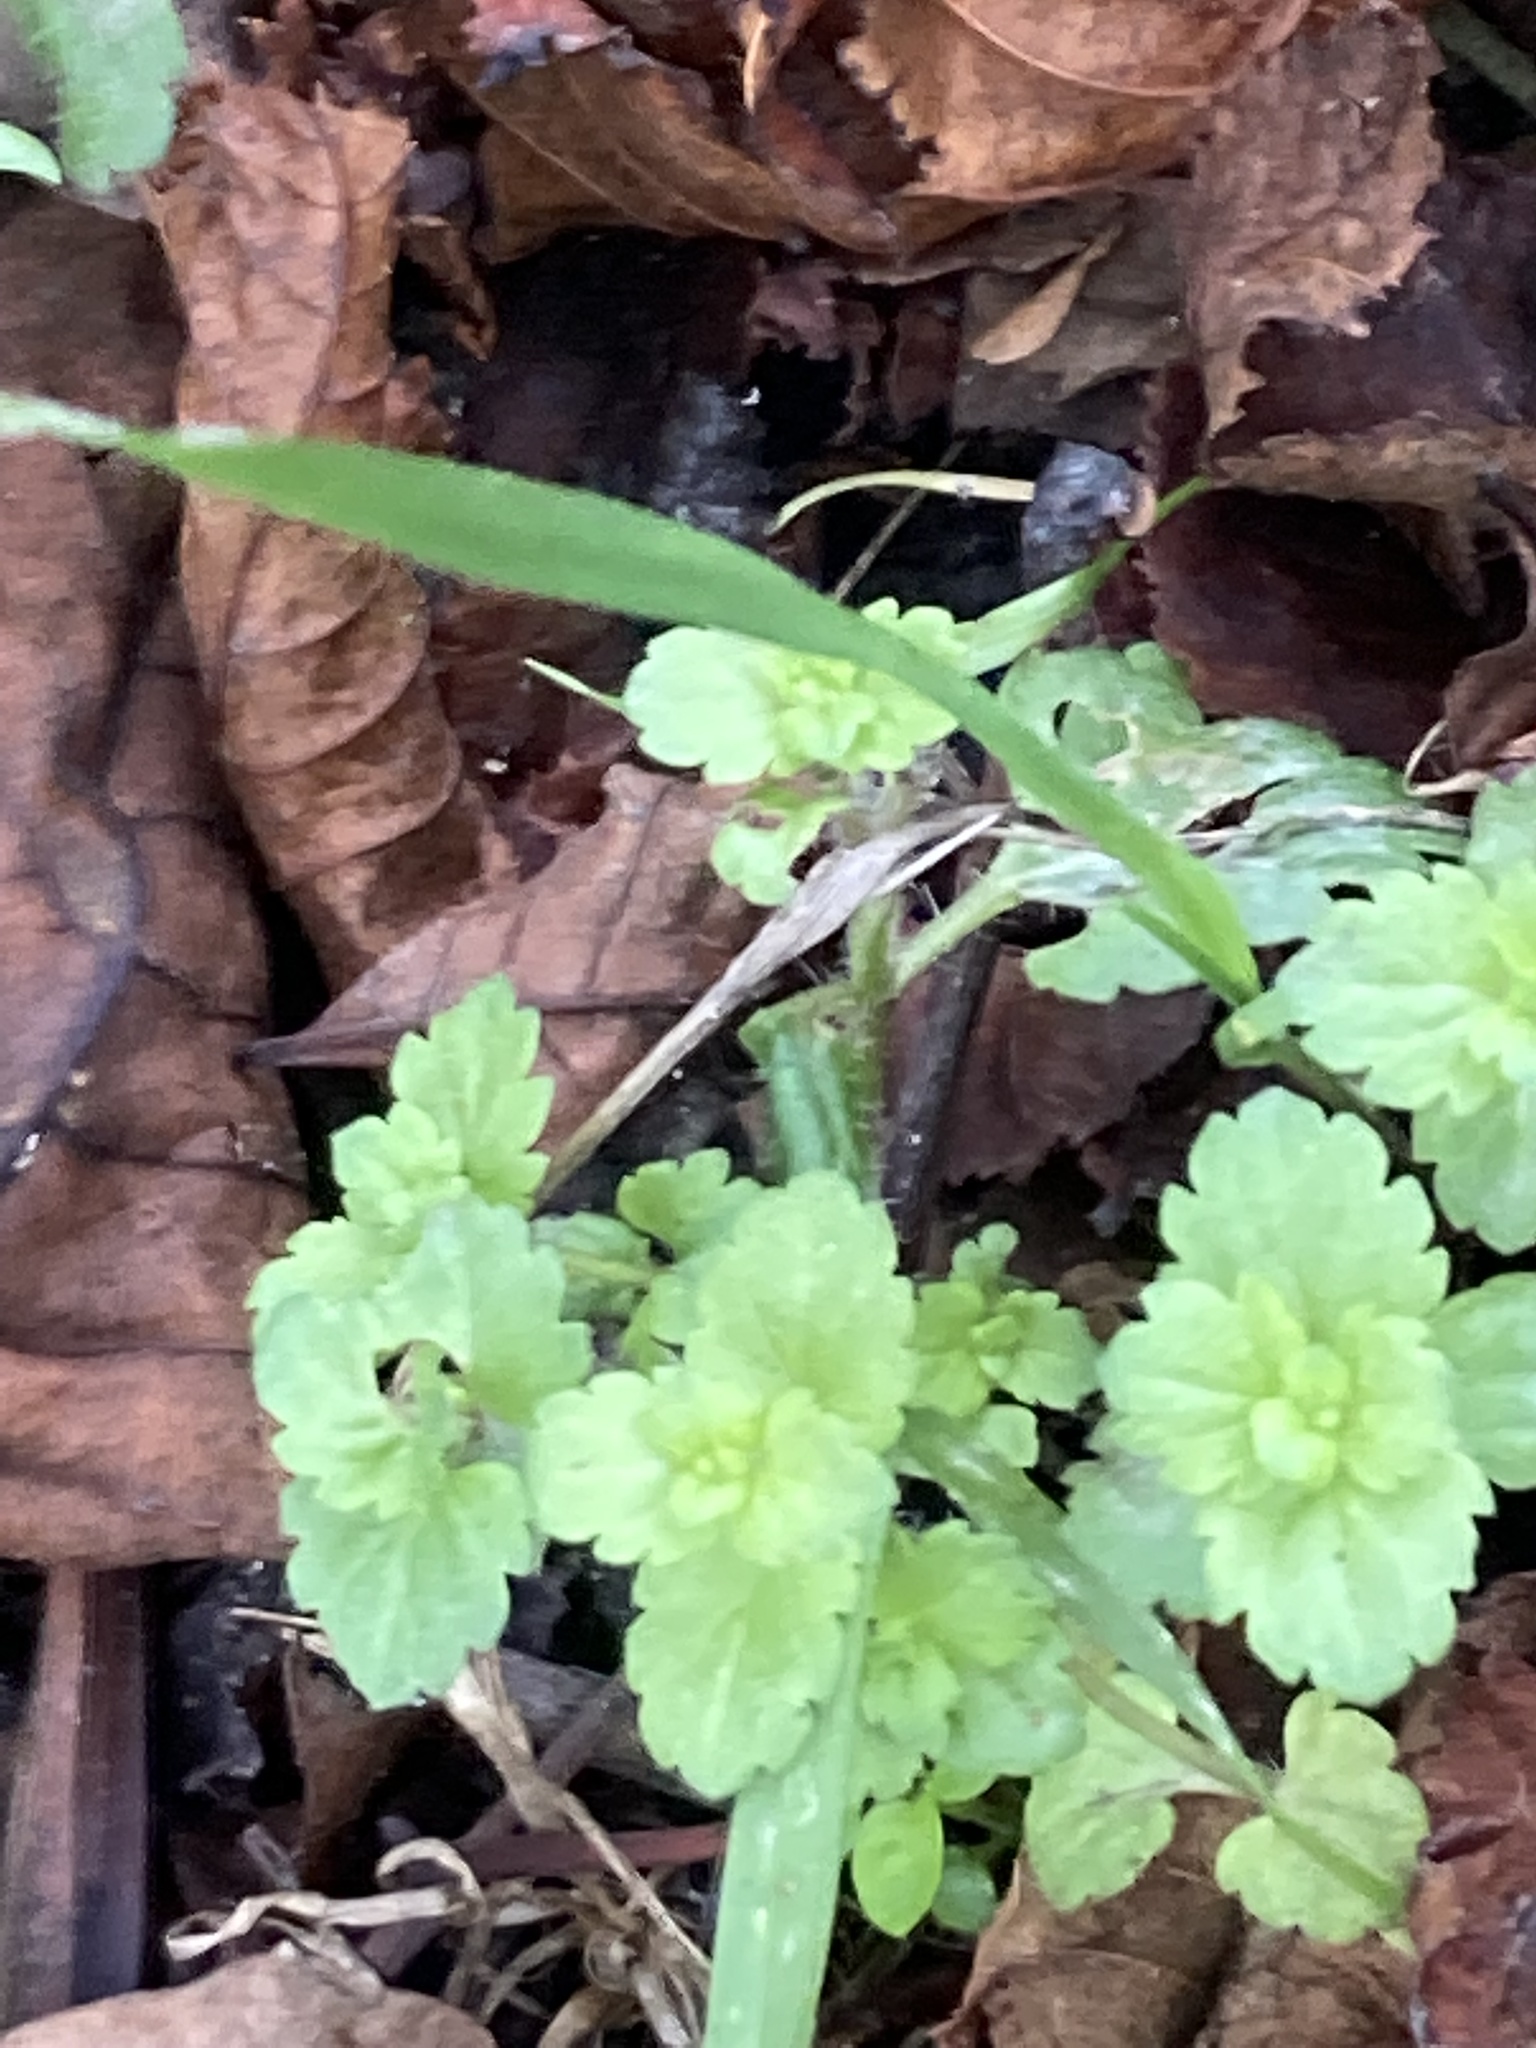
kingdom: Plantae
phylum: Tracheophyta
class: Magnoliopsida
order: Lamiales
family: Plantaginaceae
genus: Veronica
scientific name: Veronica persica
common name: Common field-speedwell
